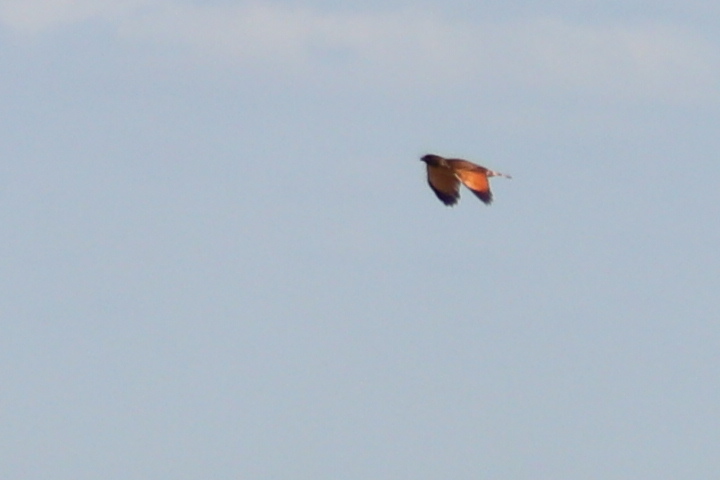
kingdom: Animalia
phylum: Chordata
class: Aves
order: Accipitriformes
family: Accipitridae
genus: Rupornis
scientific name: Rupornis magnirostris
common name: Roadside hawk
